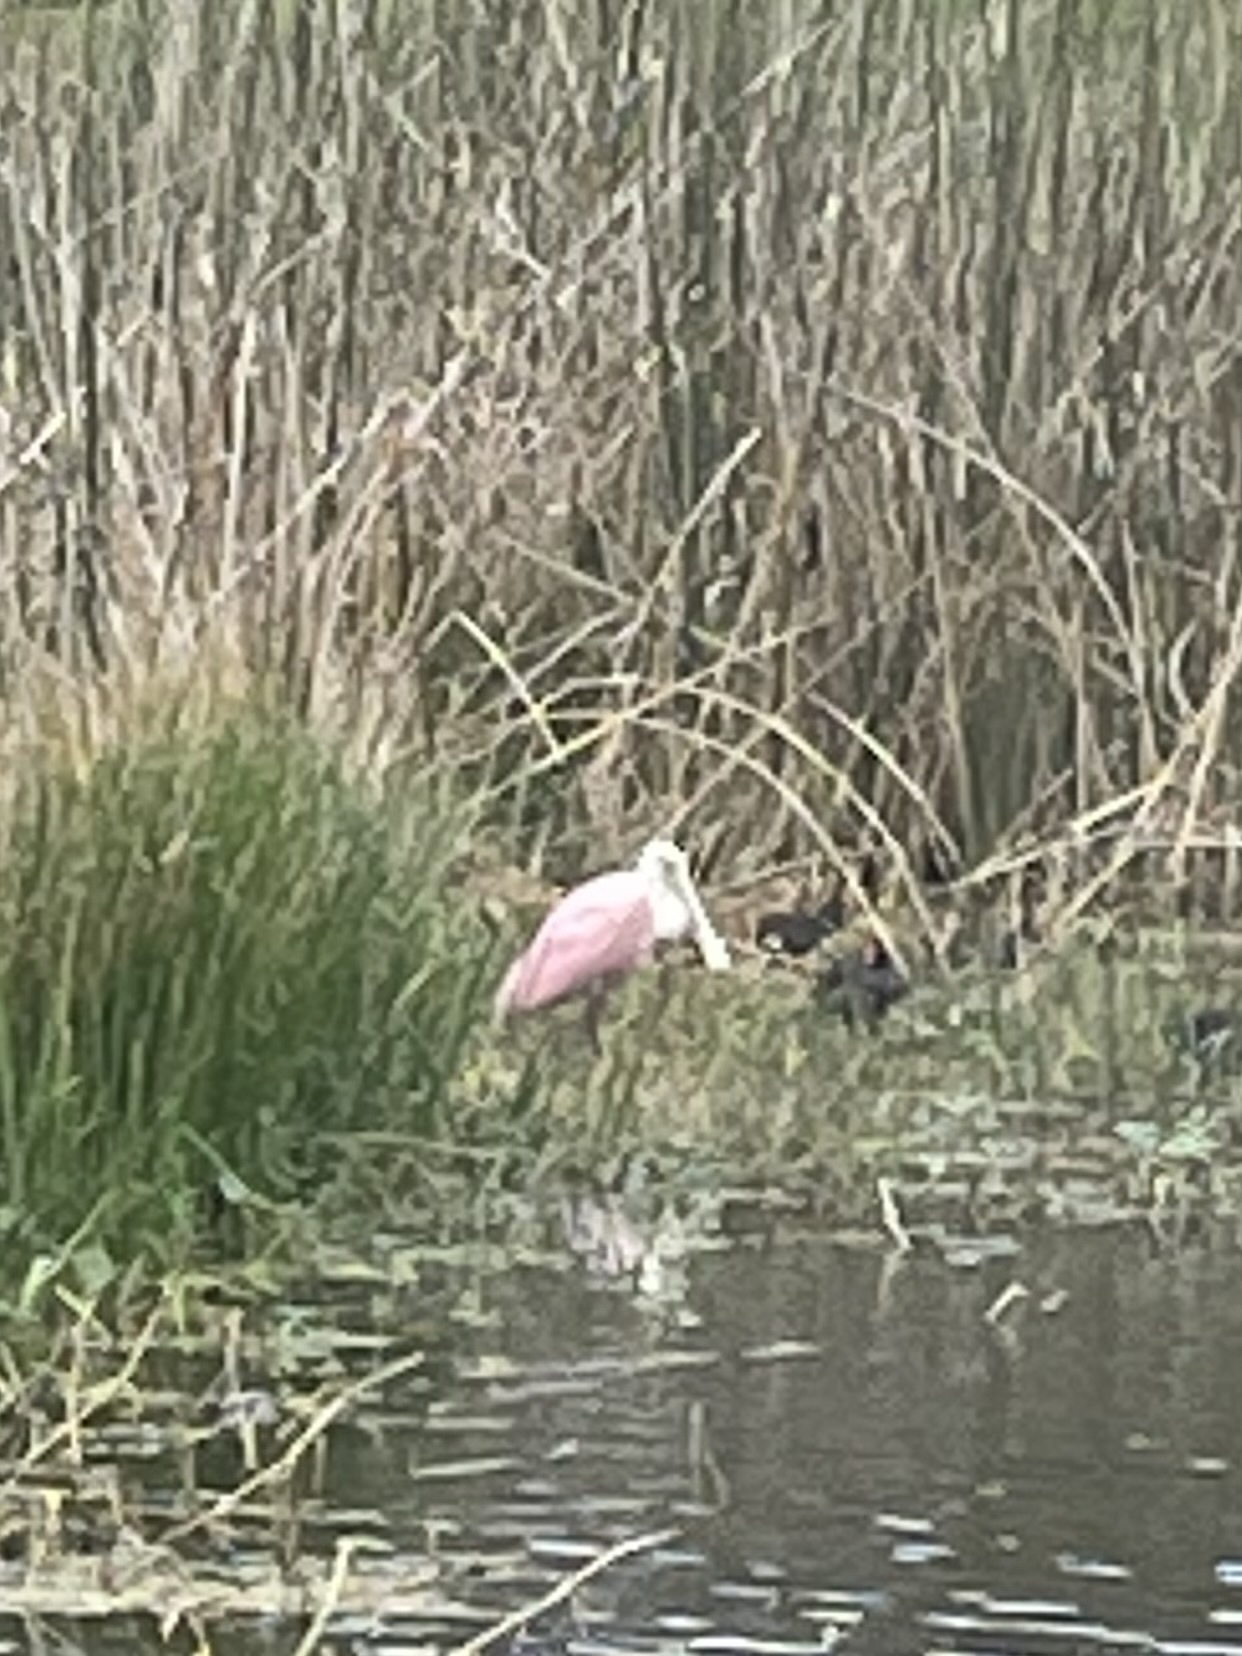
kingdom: Animalia
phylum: Chordata
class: Aves
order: Pelecaniformes
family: Threskiornithidae
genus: Platalea
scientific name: Platalea ajaja
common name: Roseate spoonbill
